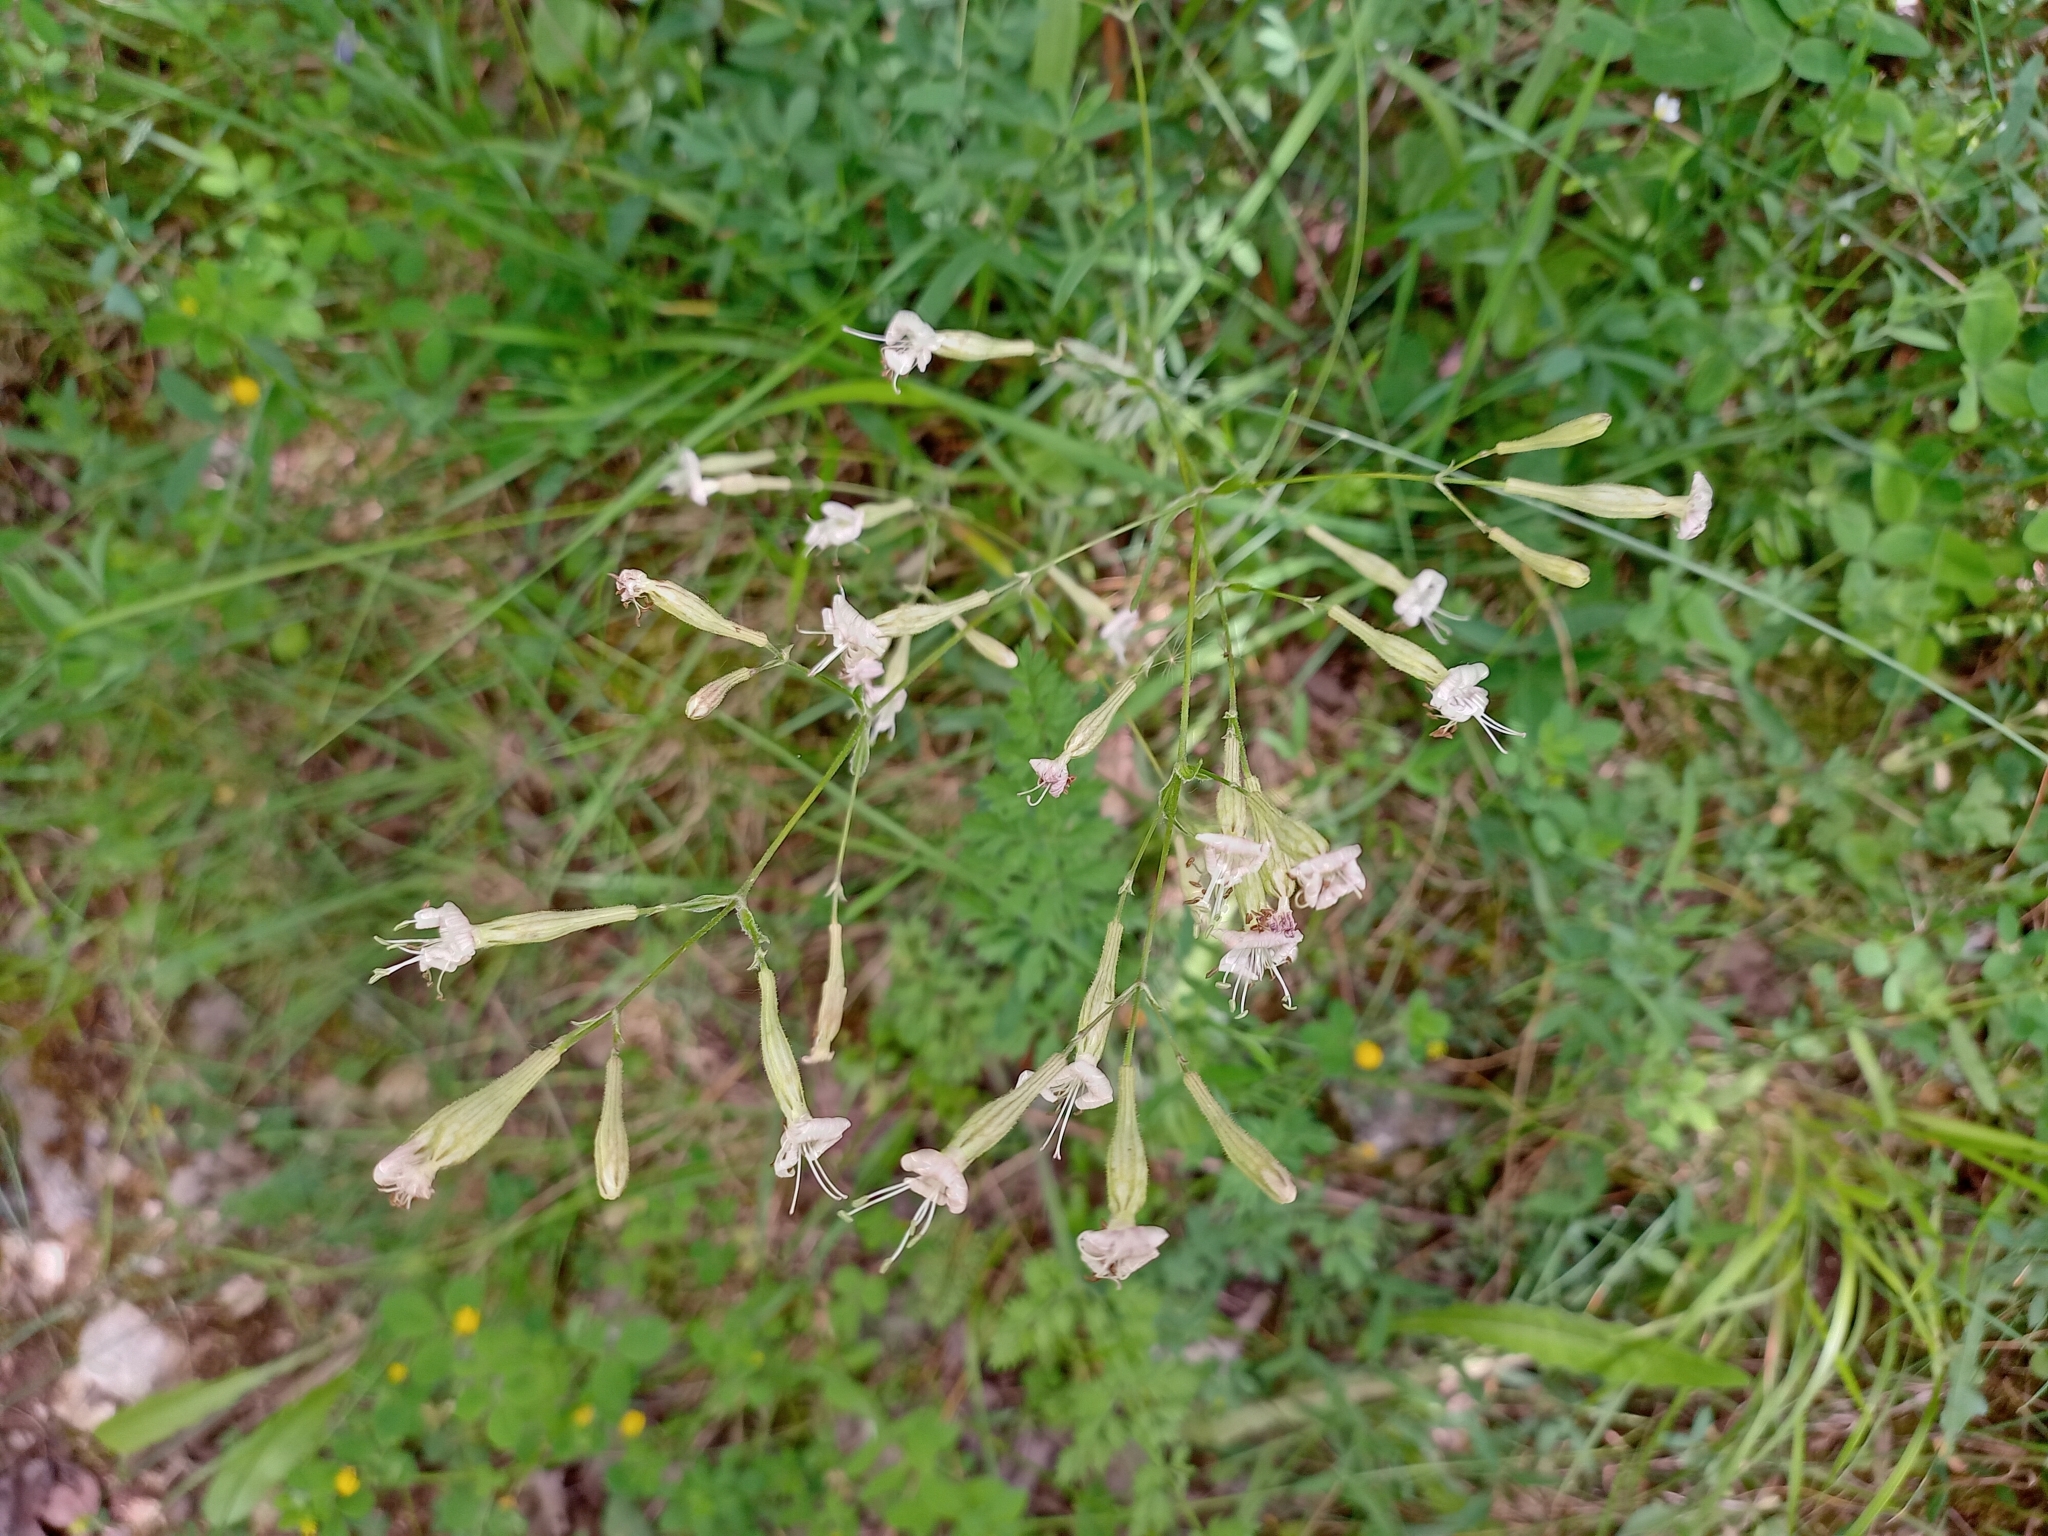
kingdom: Plantae
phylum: Tracheophyta
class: Magnoliopsida
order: Caryophyllales
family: Caryophyllaceae
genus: Silene
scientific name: Silene italica
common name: Italian catchfly
